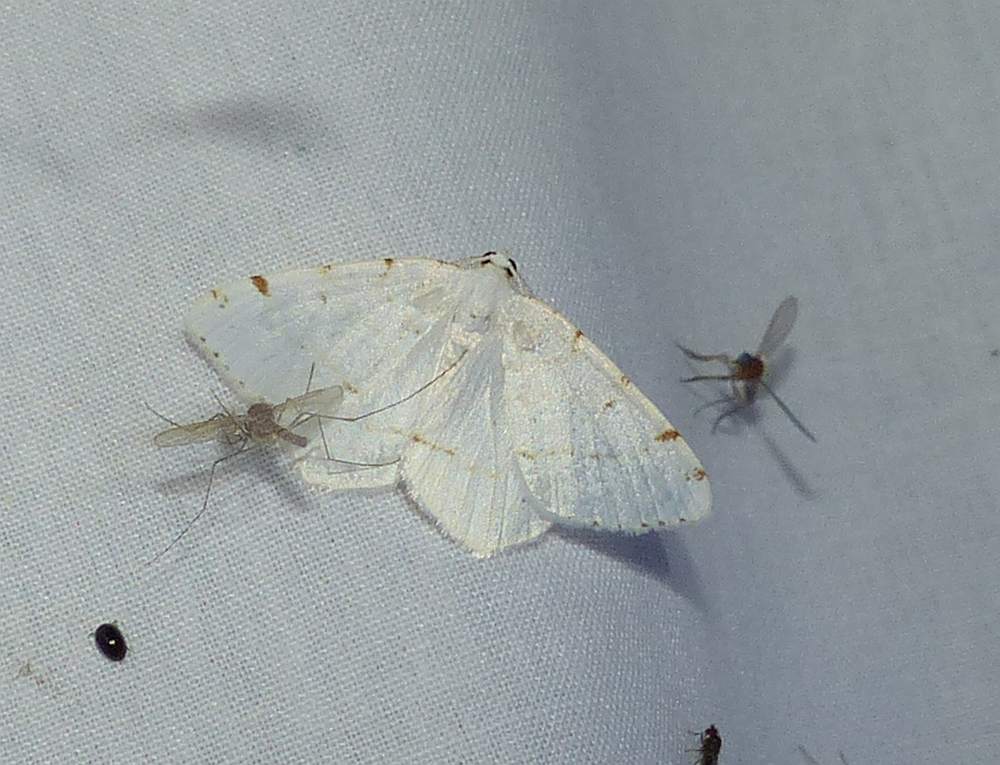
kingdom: Animalia
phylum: Arthropoda
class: Insecta
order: Lepidoptera
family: Geometridae
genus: Macaria
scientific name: Macaria pustularia
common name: Lesser maple spanworm moth
